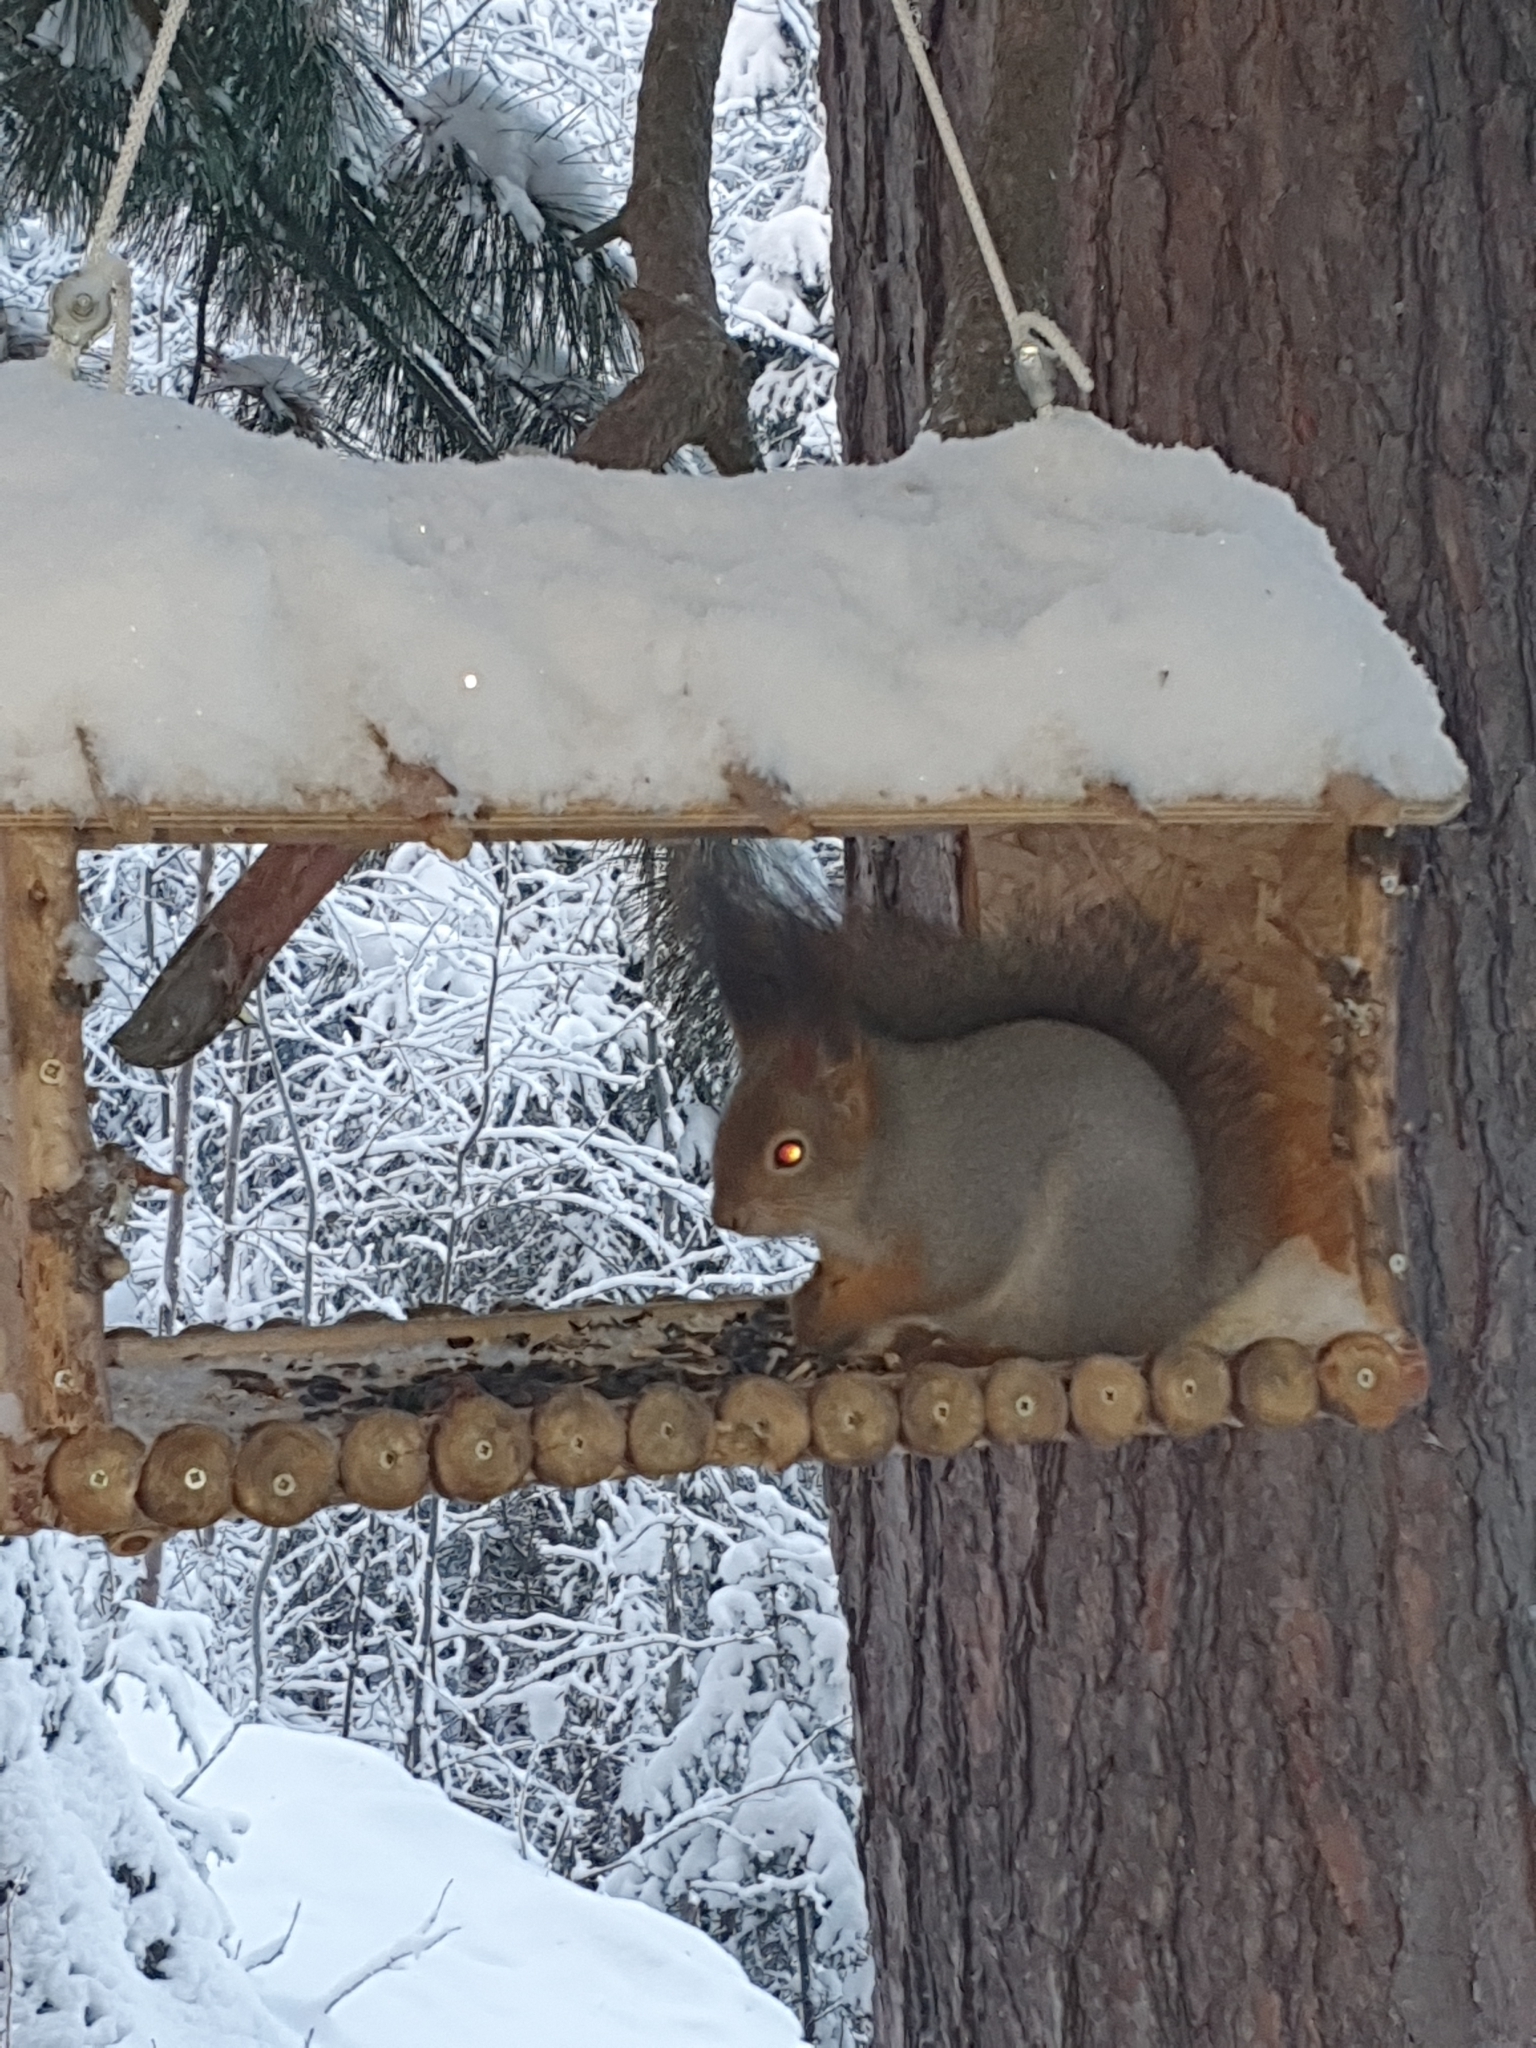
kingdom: Animalia
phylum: Chordata
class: Mammalia
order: Rodentia
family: Sciuridae
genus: Sciurus
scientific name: Sciurus vulgaris
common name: Eurasian red squirrel
